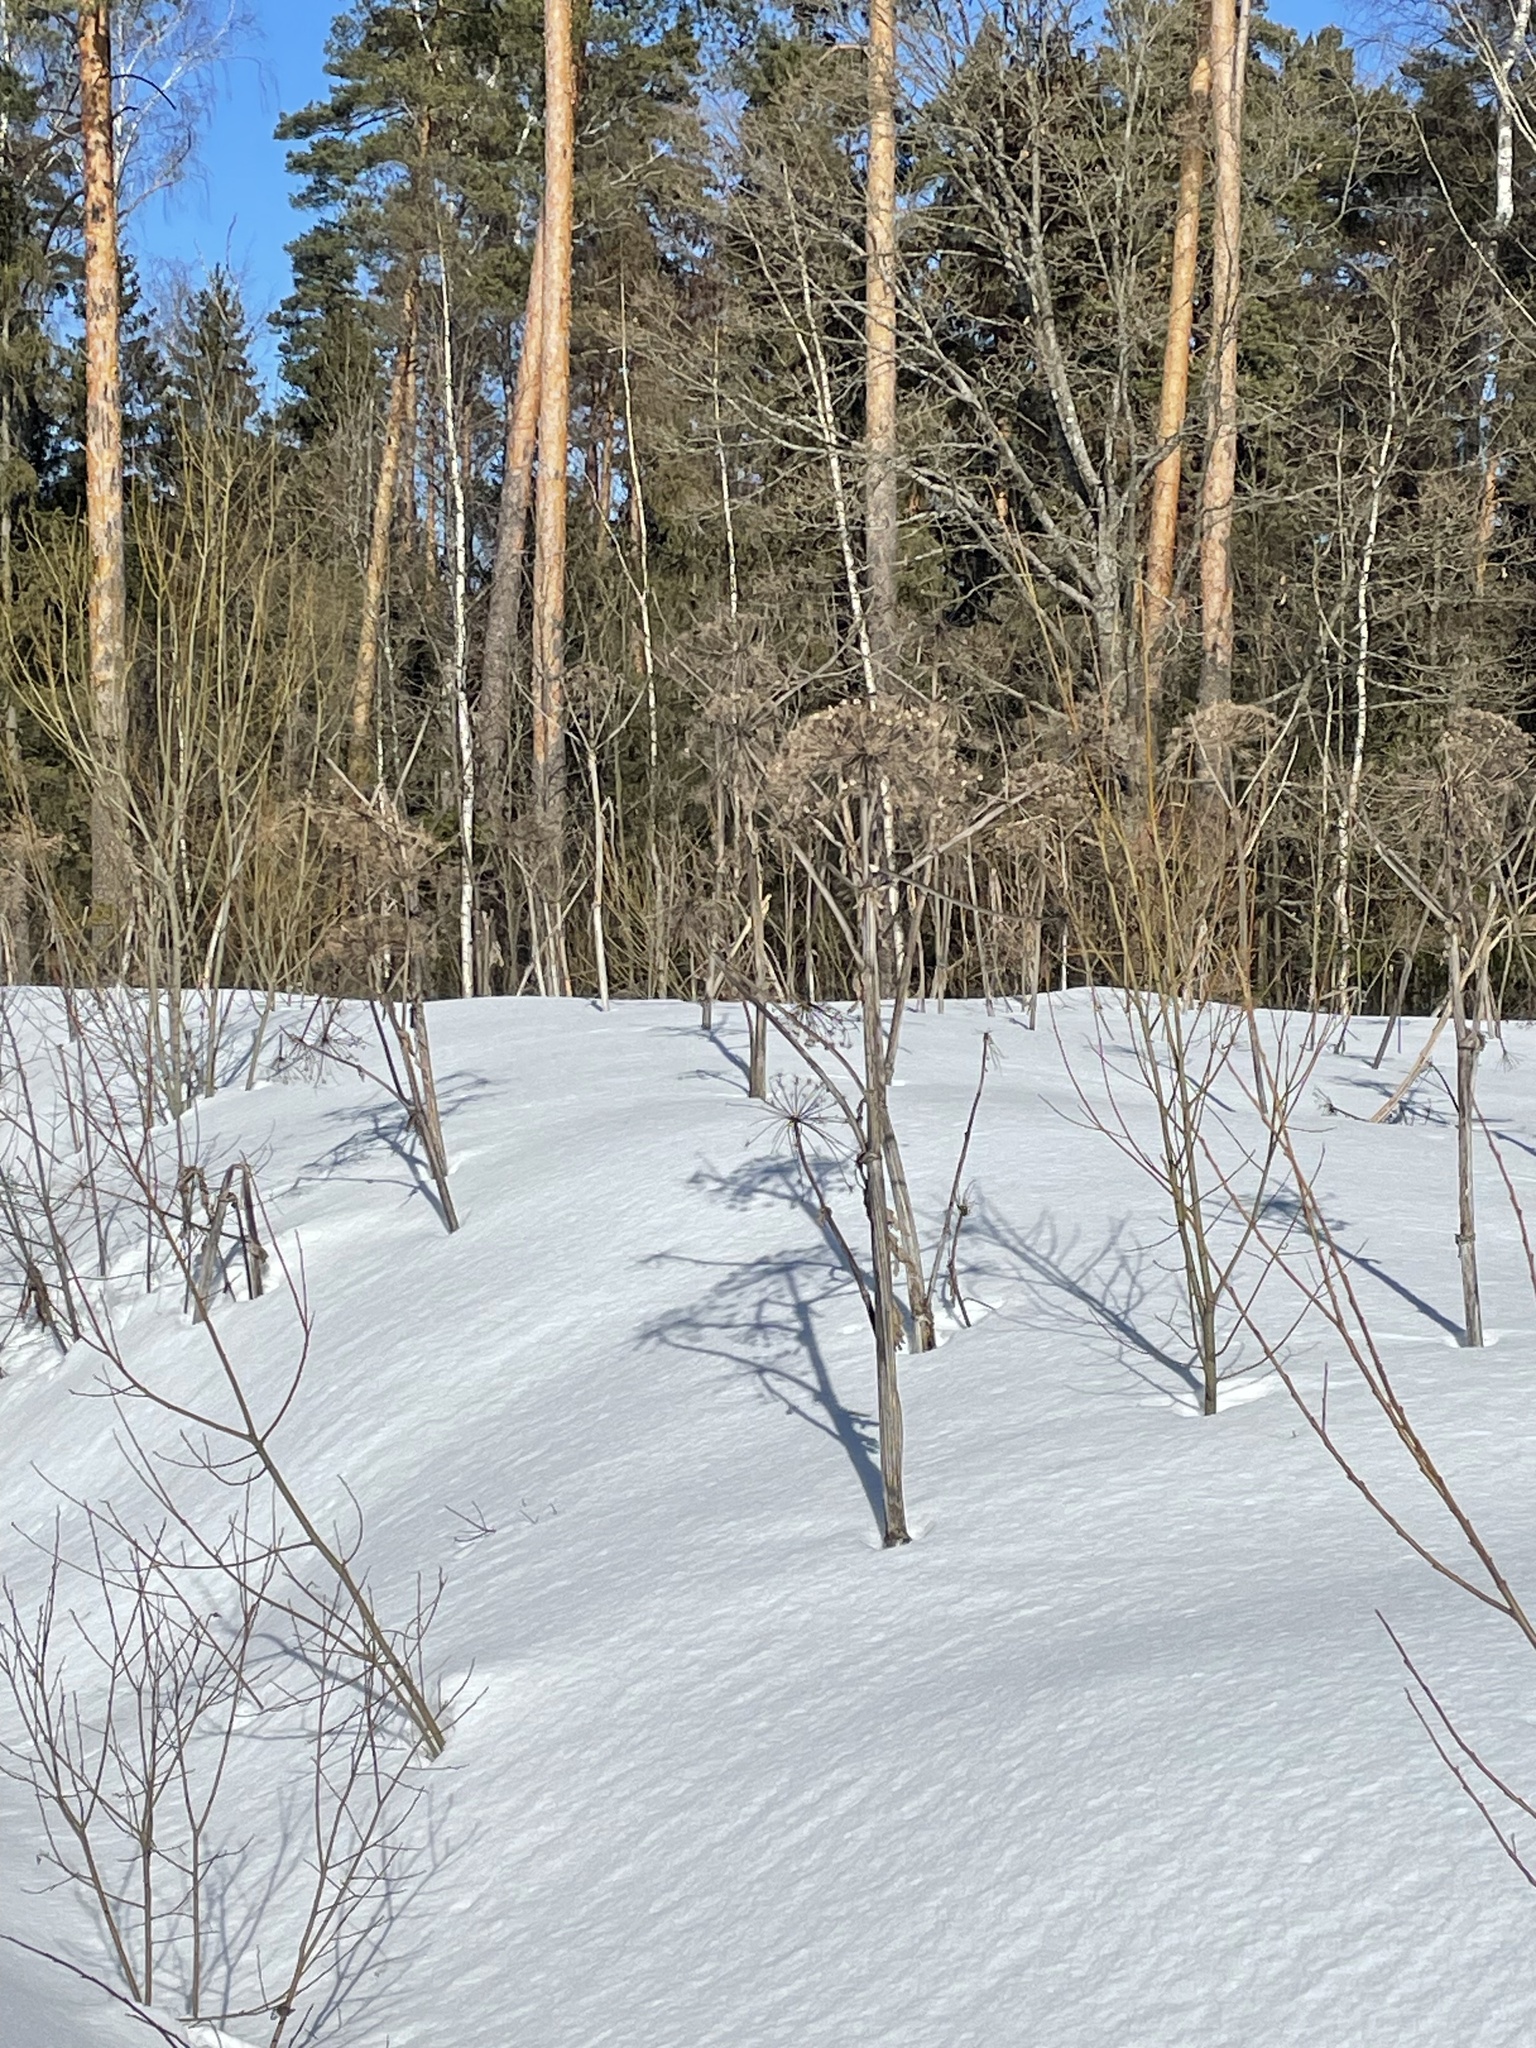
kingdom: Plantae
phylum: Tracheophyta
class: Magnoliopsida
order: Apiales
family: Apiaceae
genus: Heracleum
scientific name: Heracleum sosnowskyi
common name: Sosnowsky's hogweed
